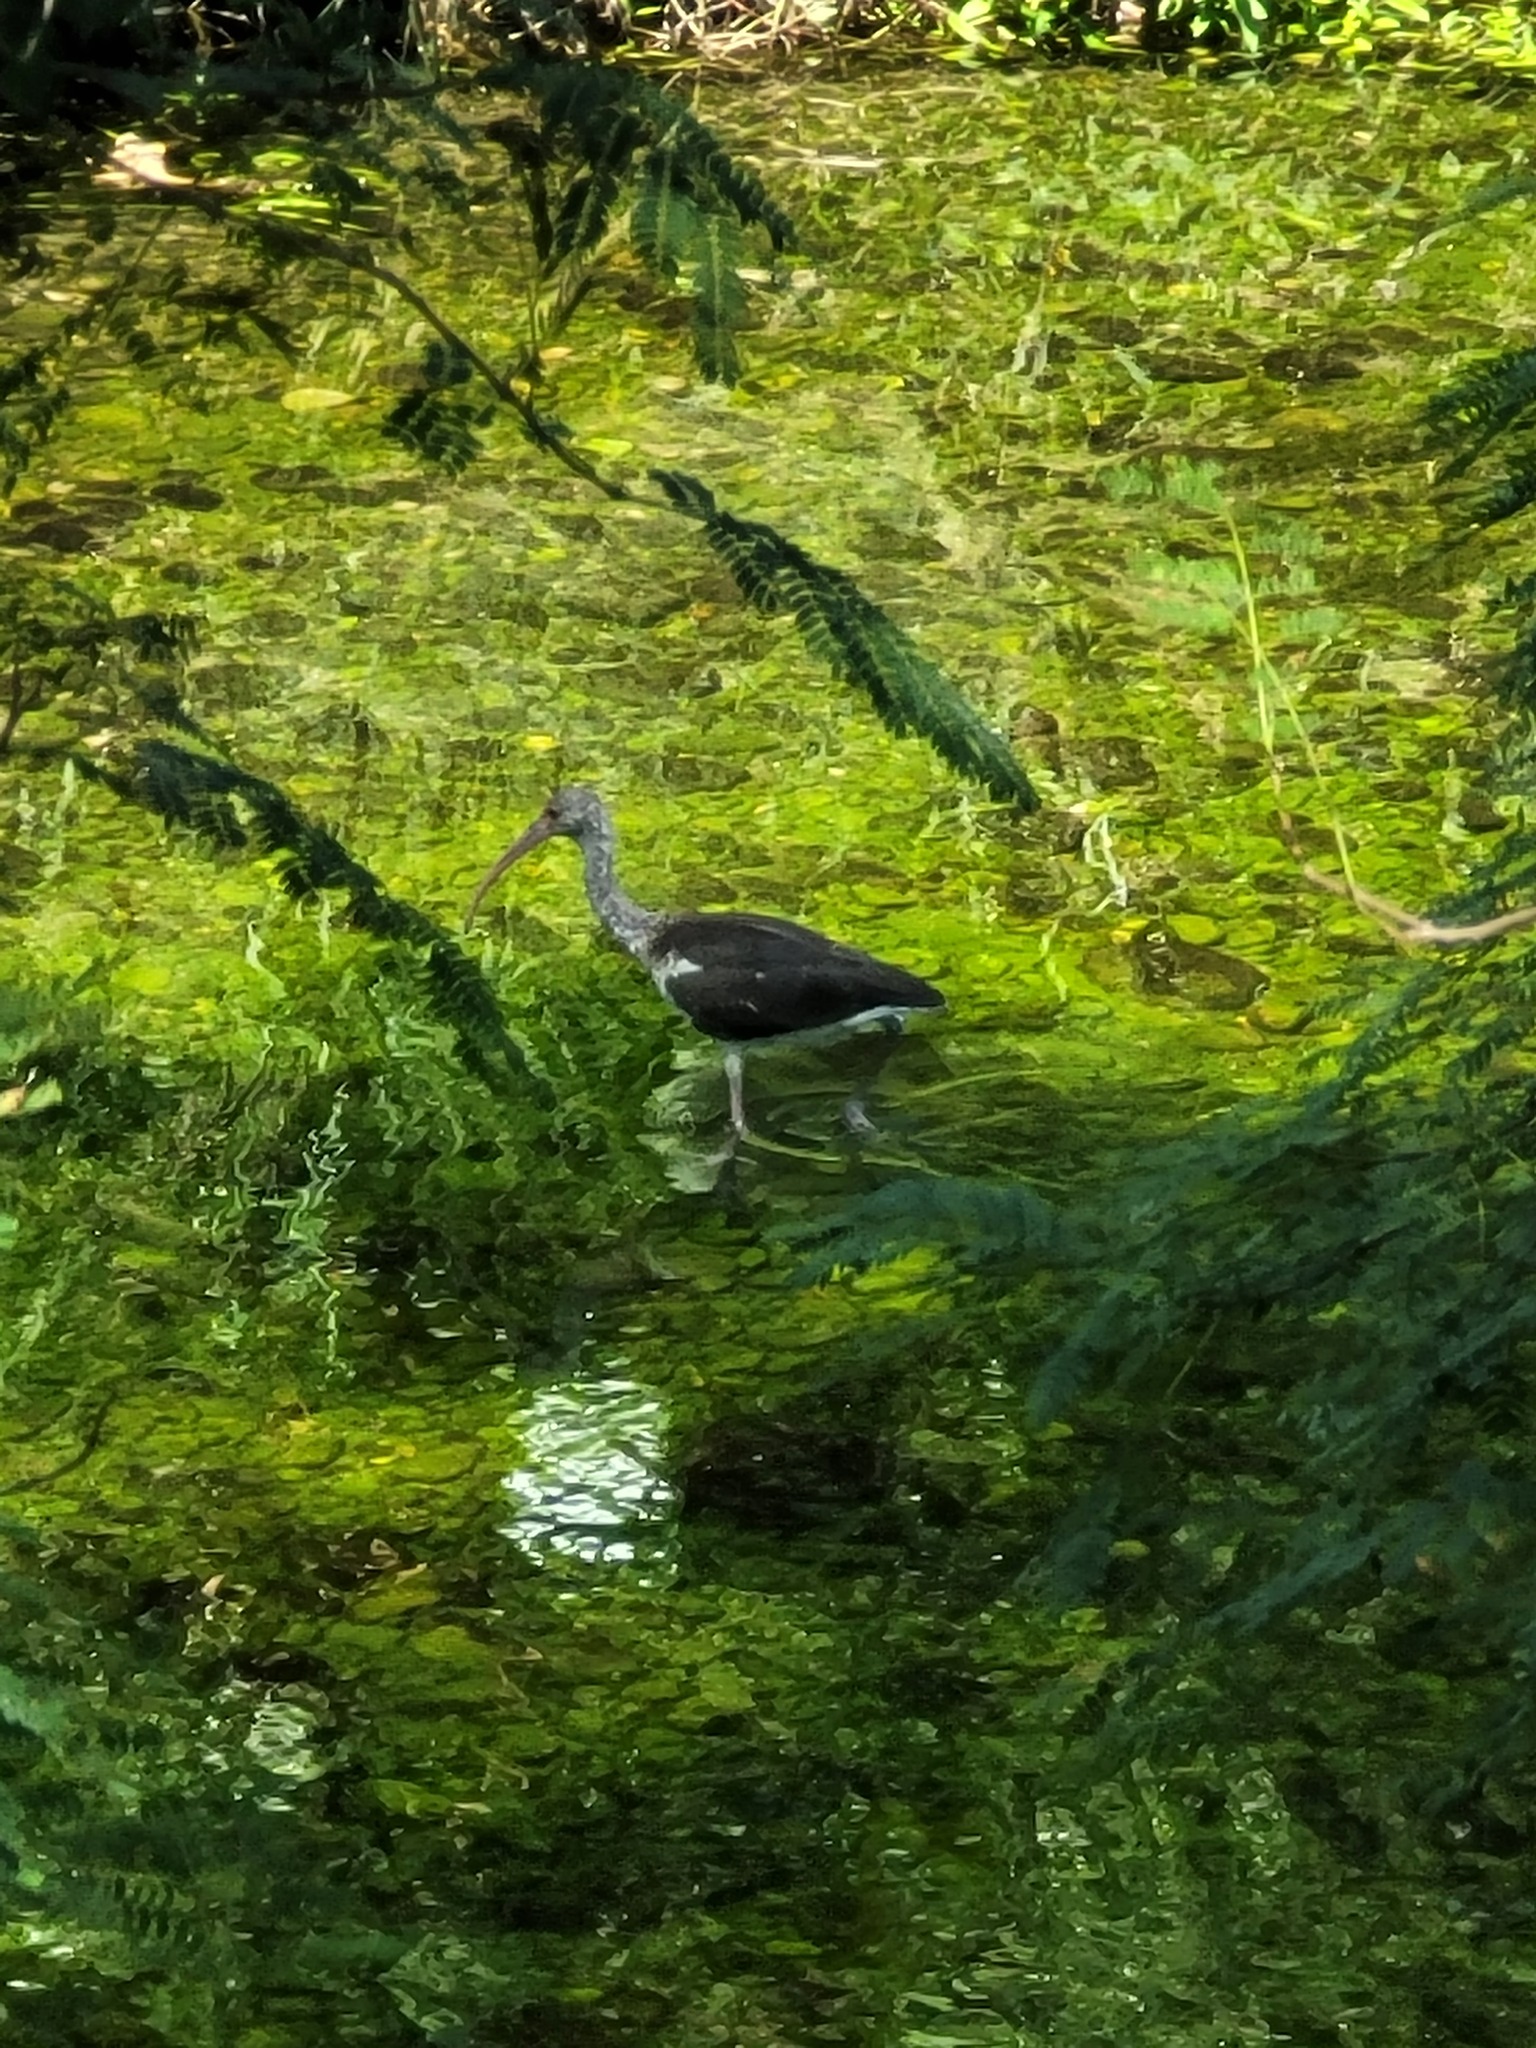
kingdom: Animalia
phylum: Chordata
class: Aves
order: Pelecaniformes
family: Threskiornithidae
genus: Eudocimus
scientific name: Eudocimus albus
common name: White ibis
